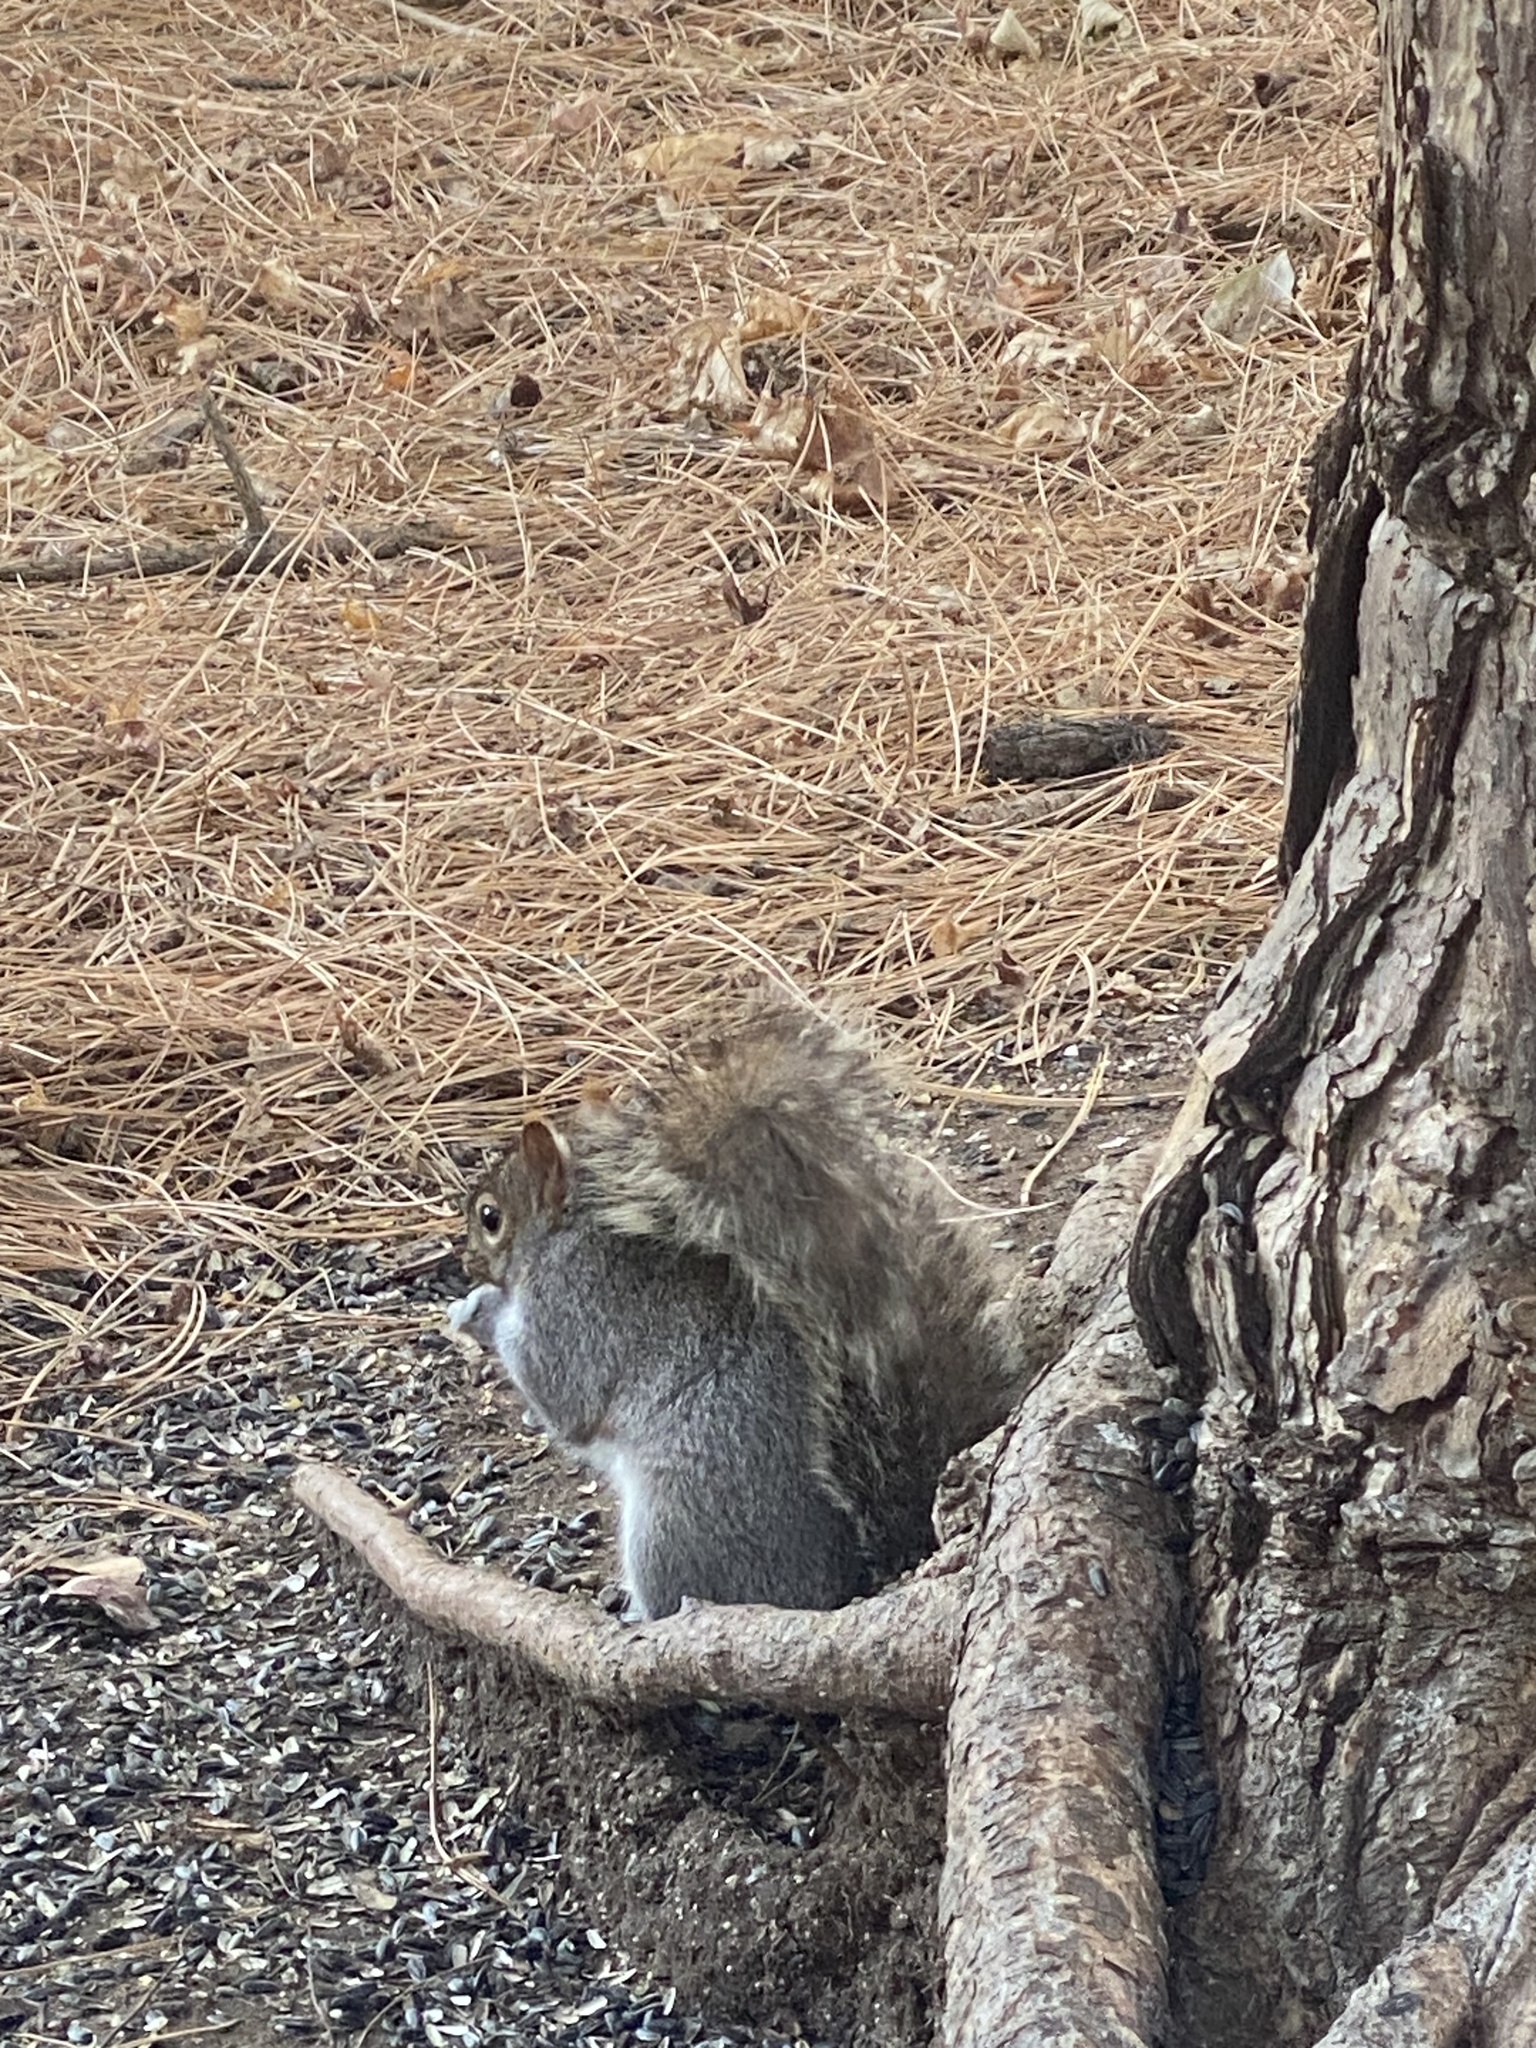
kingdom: Animalia
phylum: Chordata
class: Mammalia
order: Rodentia
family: Sciuridae
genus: Sciurus
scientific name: Sciurus carolinensis
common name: Eastern gray squirrel
